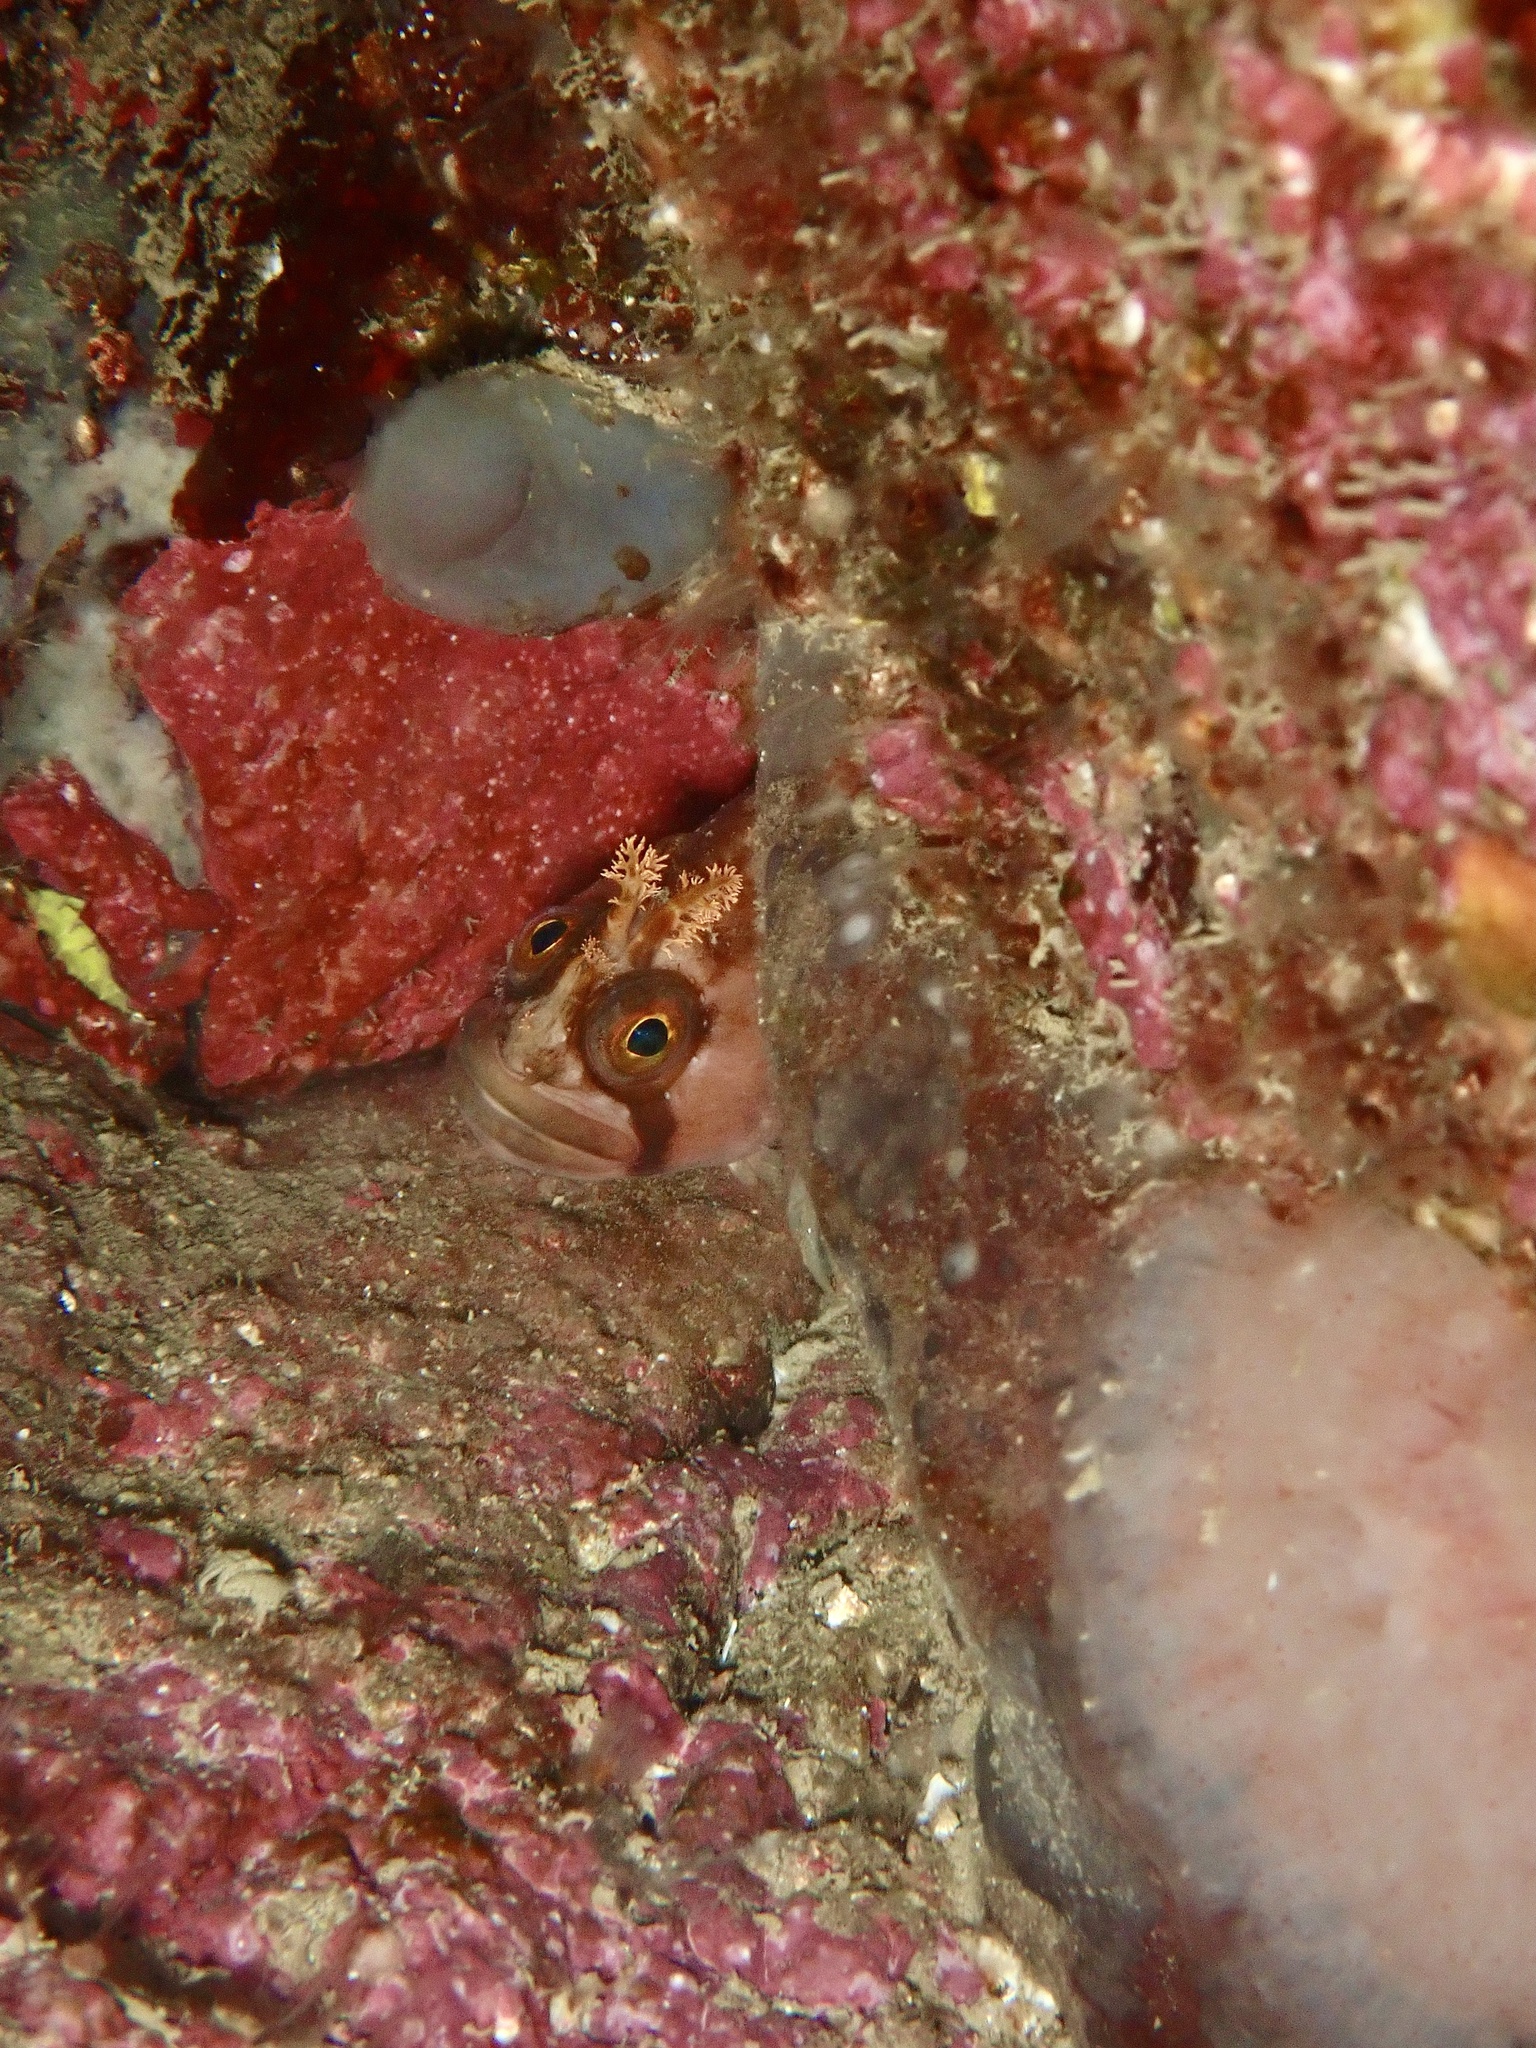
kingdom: Animalia
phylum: Chordata
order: Perciformes
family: Stichaeidae
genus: Chirolophis
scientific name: Chirolophis ascanii
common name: Yarrell's blenny
